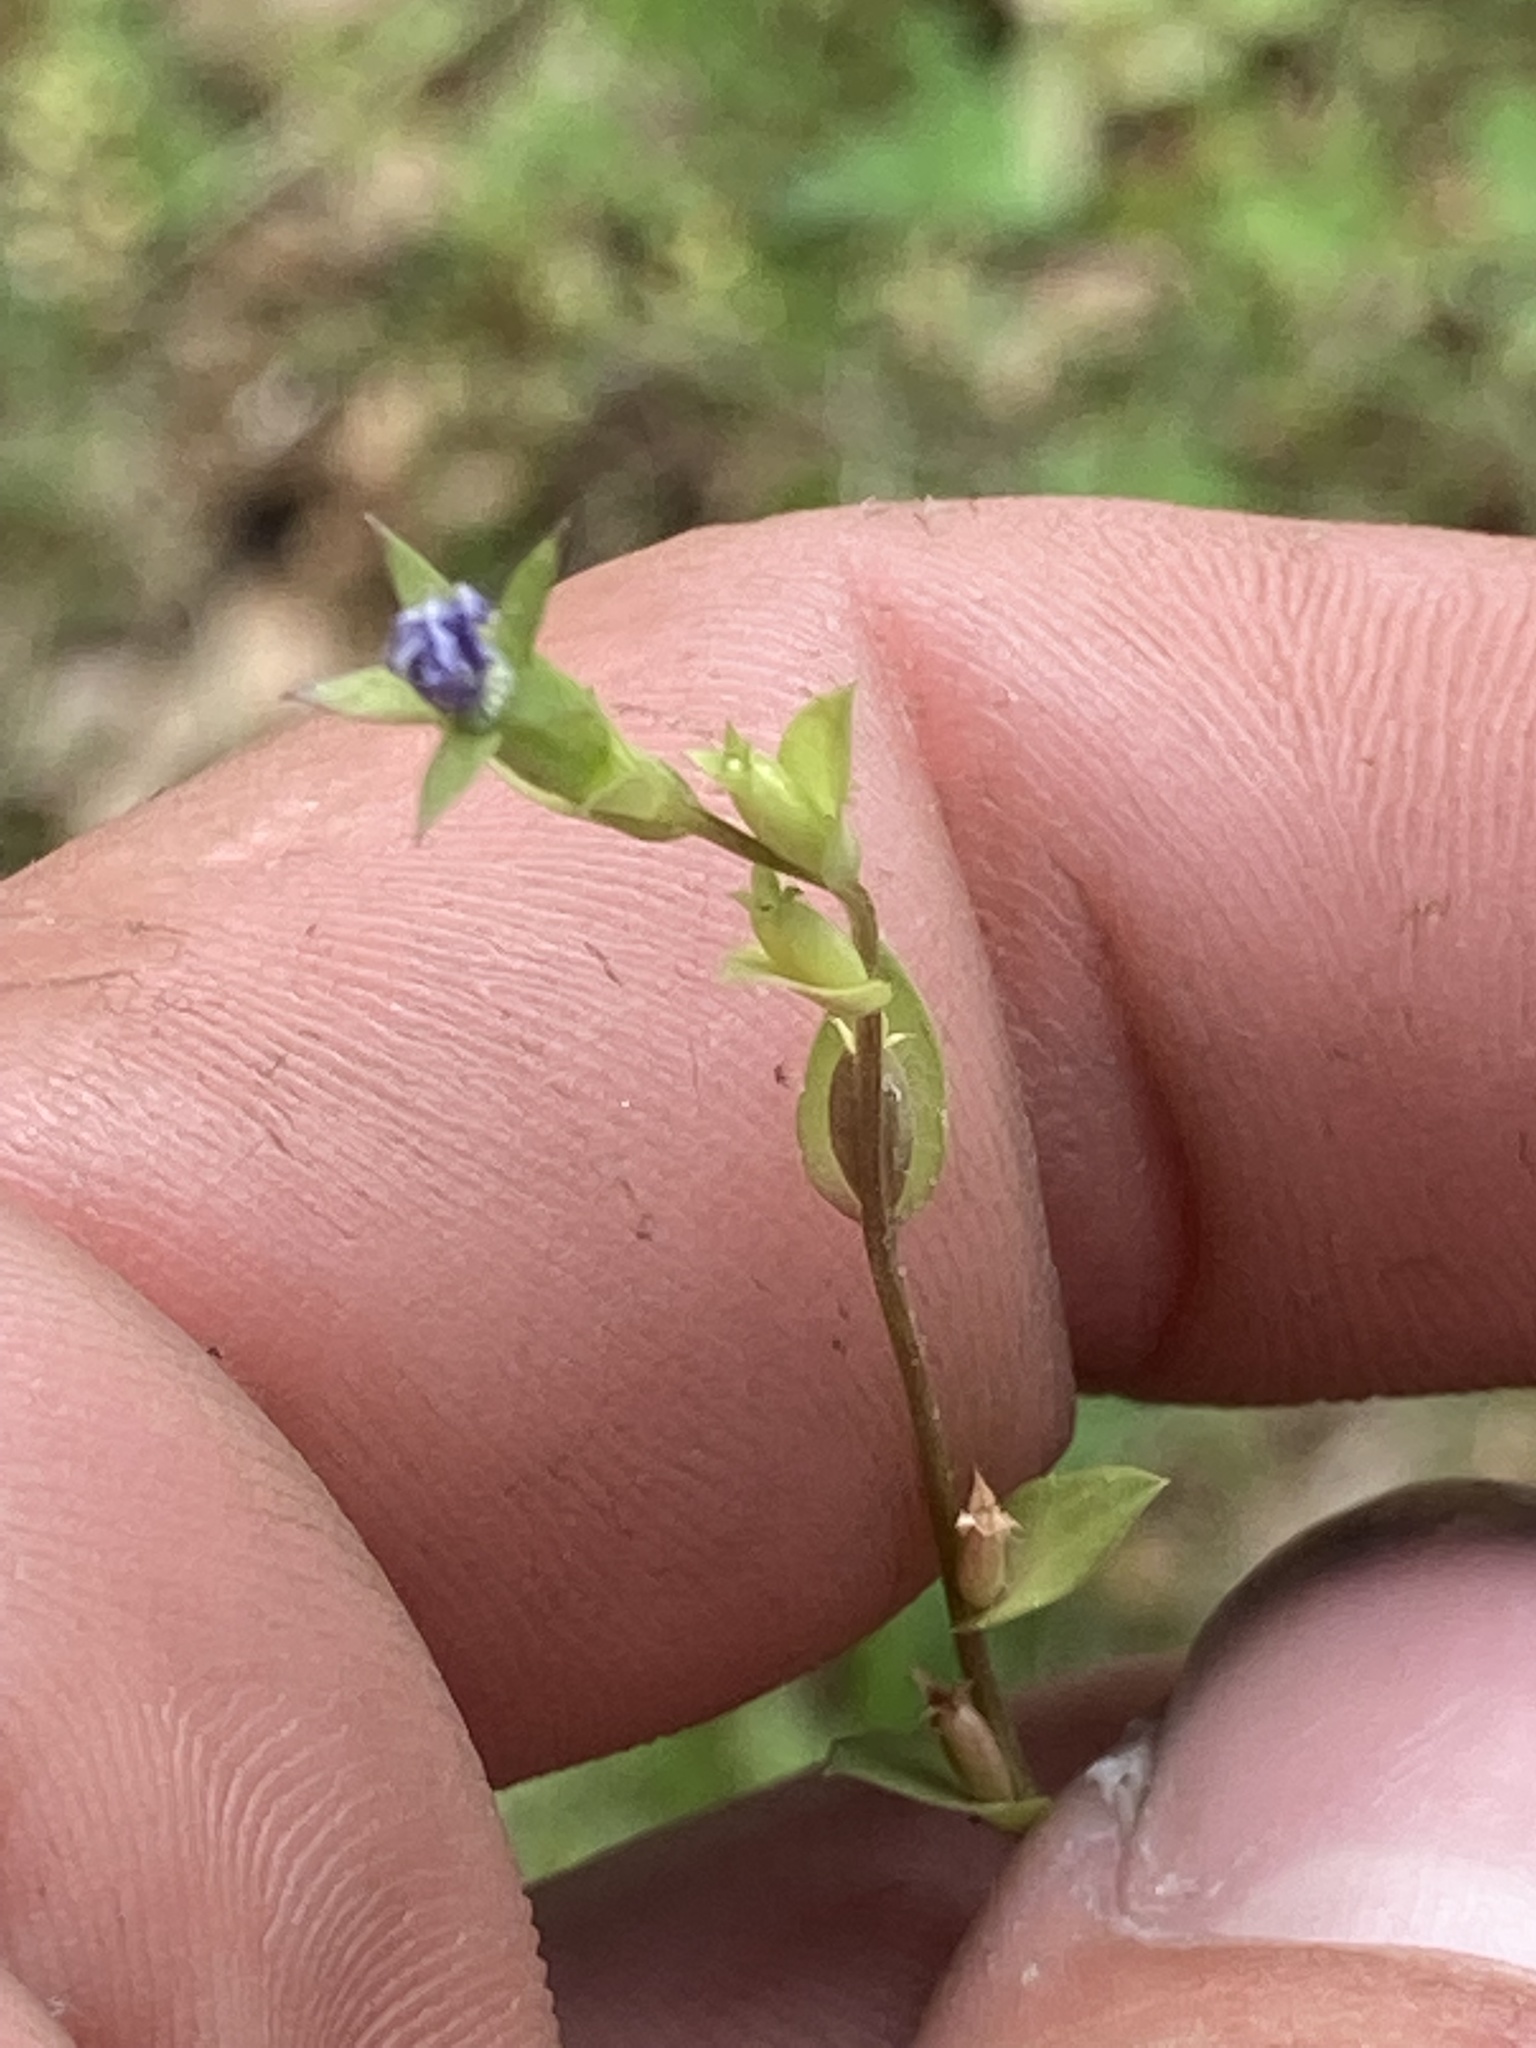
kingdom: Plantae
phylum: Tracheophyta
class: Magnoliopsida
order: Asterales
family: Campanulaceae
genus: Triodanis
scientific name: Triodanis biflora
